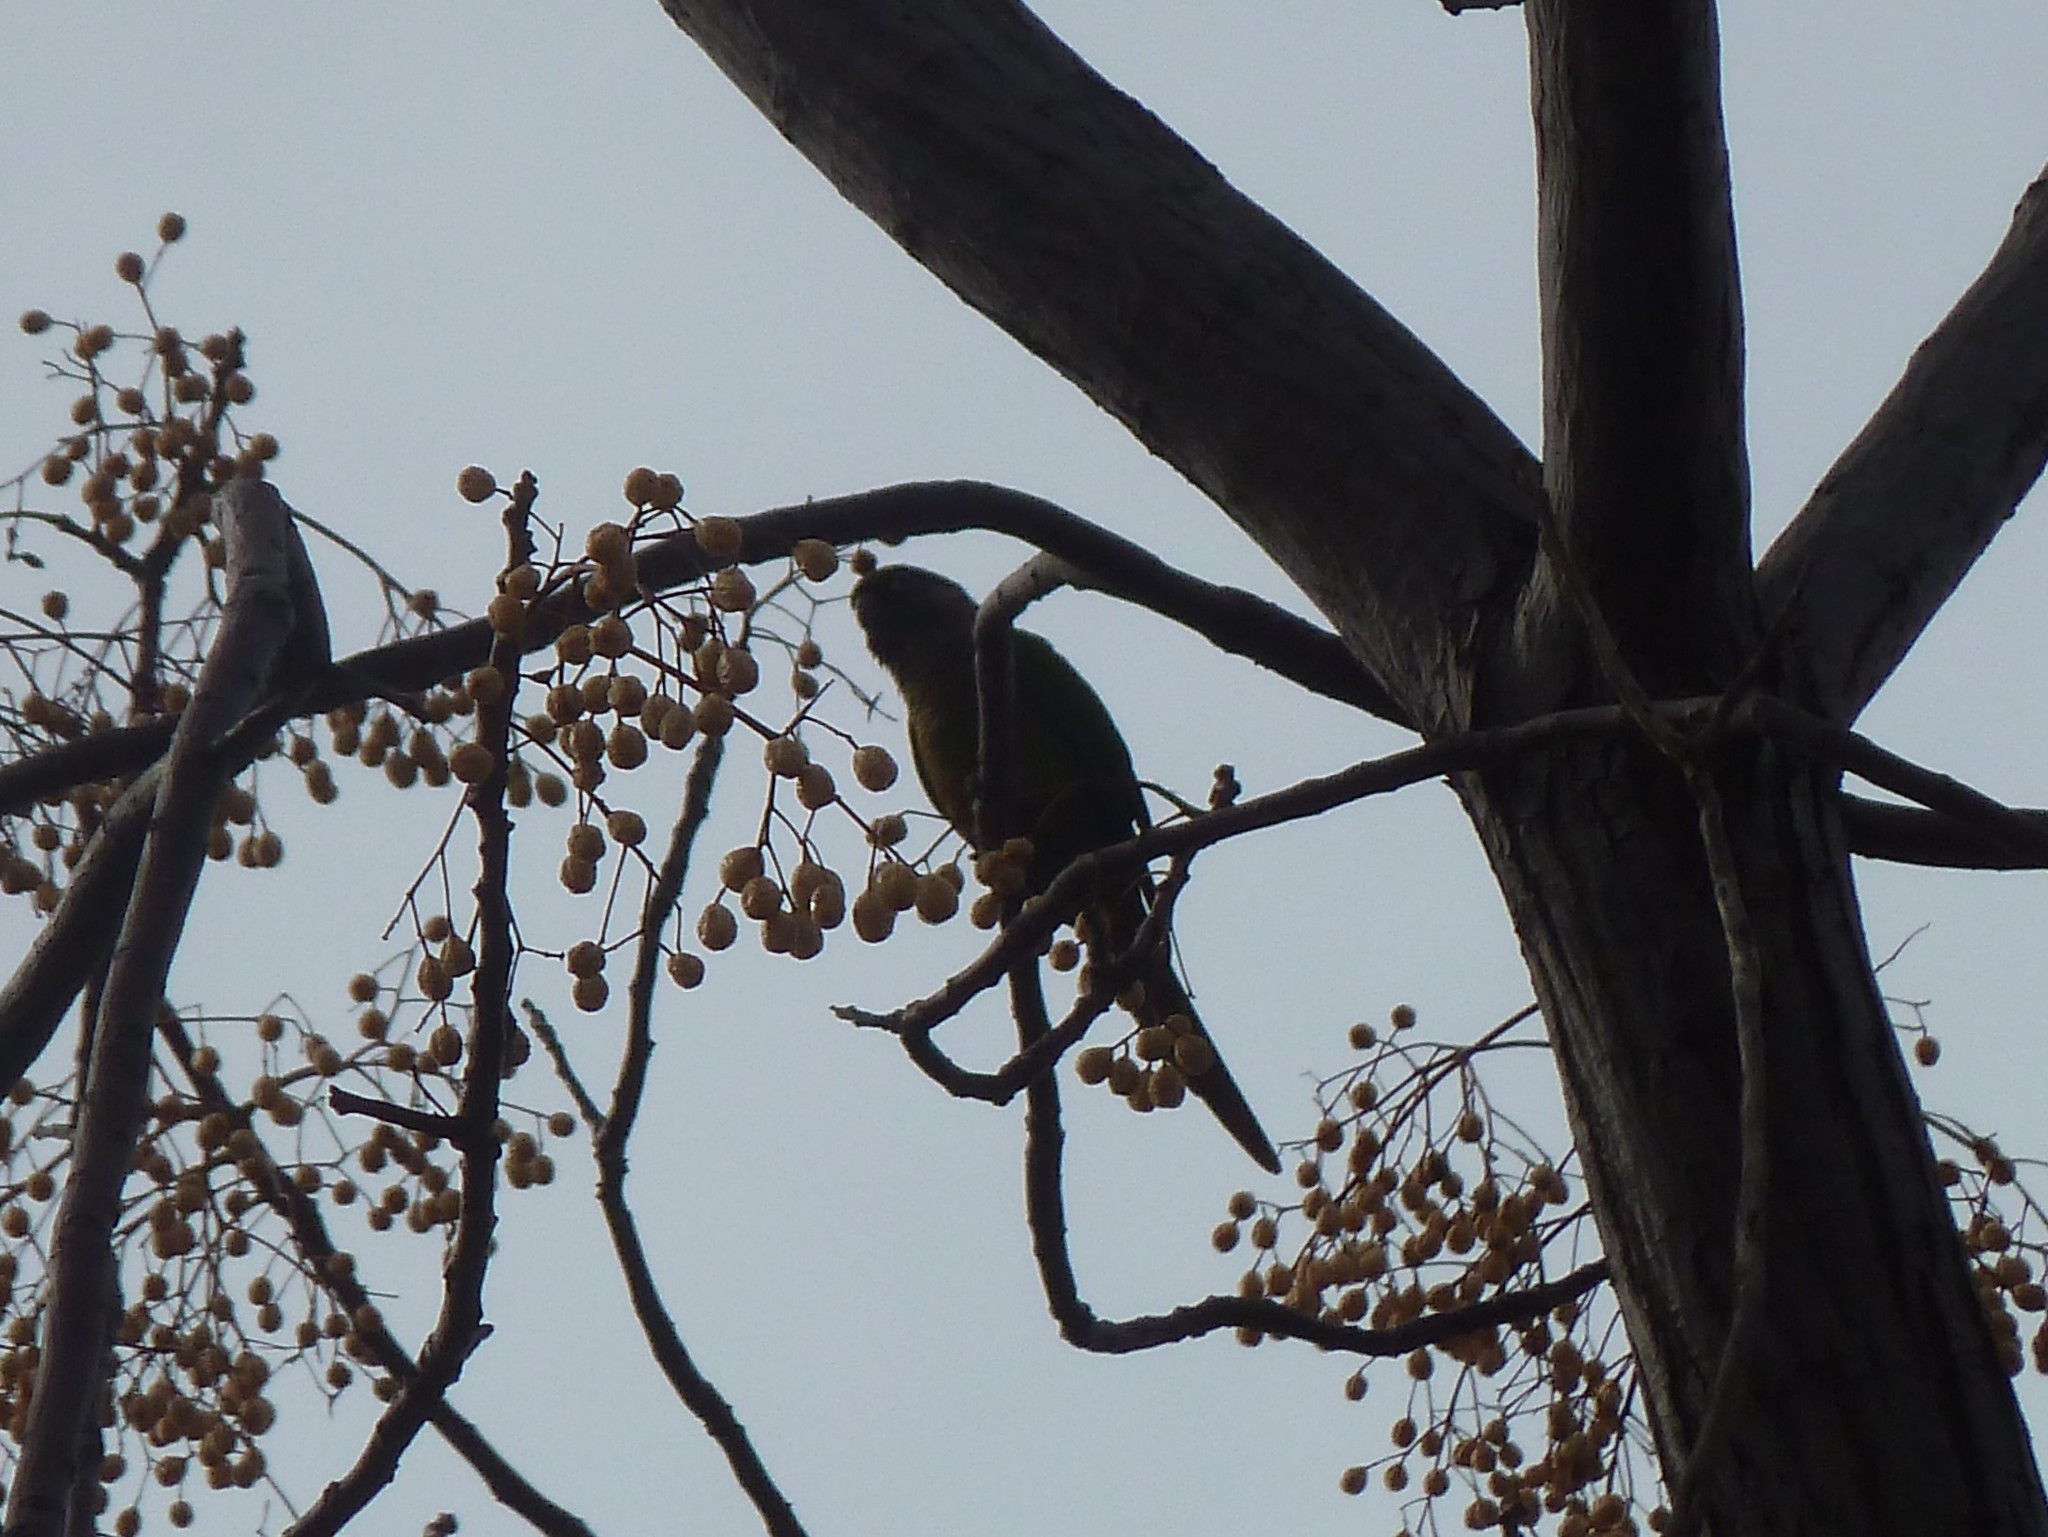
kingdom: Animalia
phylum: Chordata
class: Aves
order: Psittaciformes
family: Psittacidae
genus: Pyrrhura
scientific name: Pyrrhura frontalis
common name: Maroon-bellied parakeet
